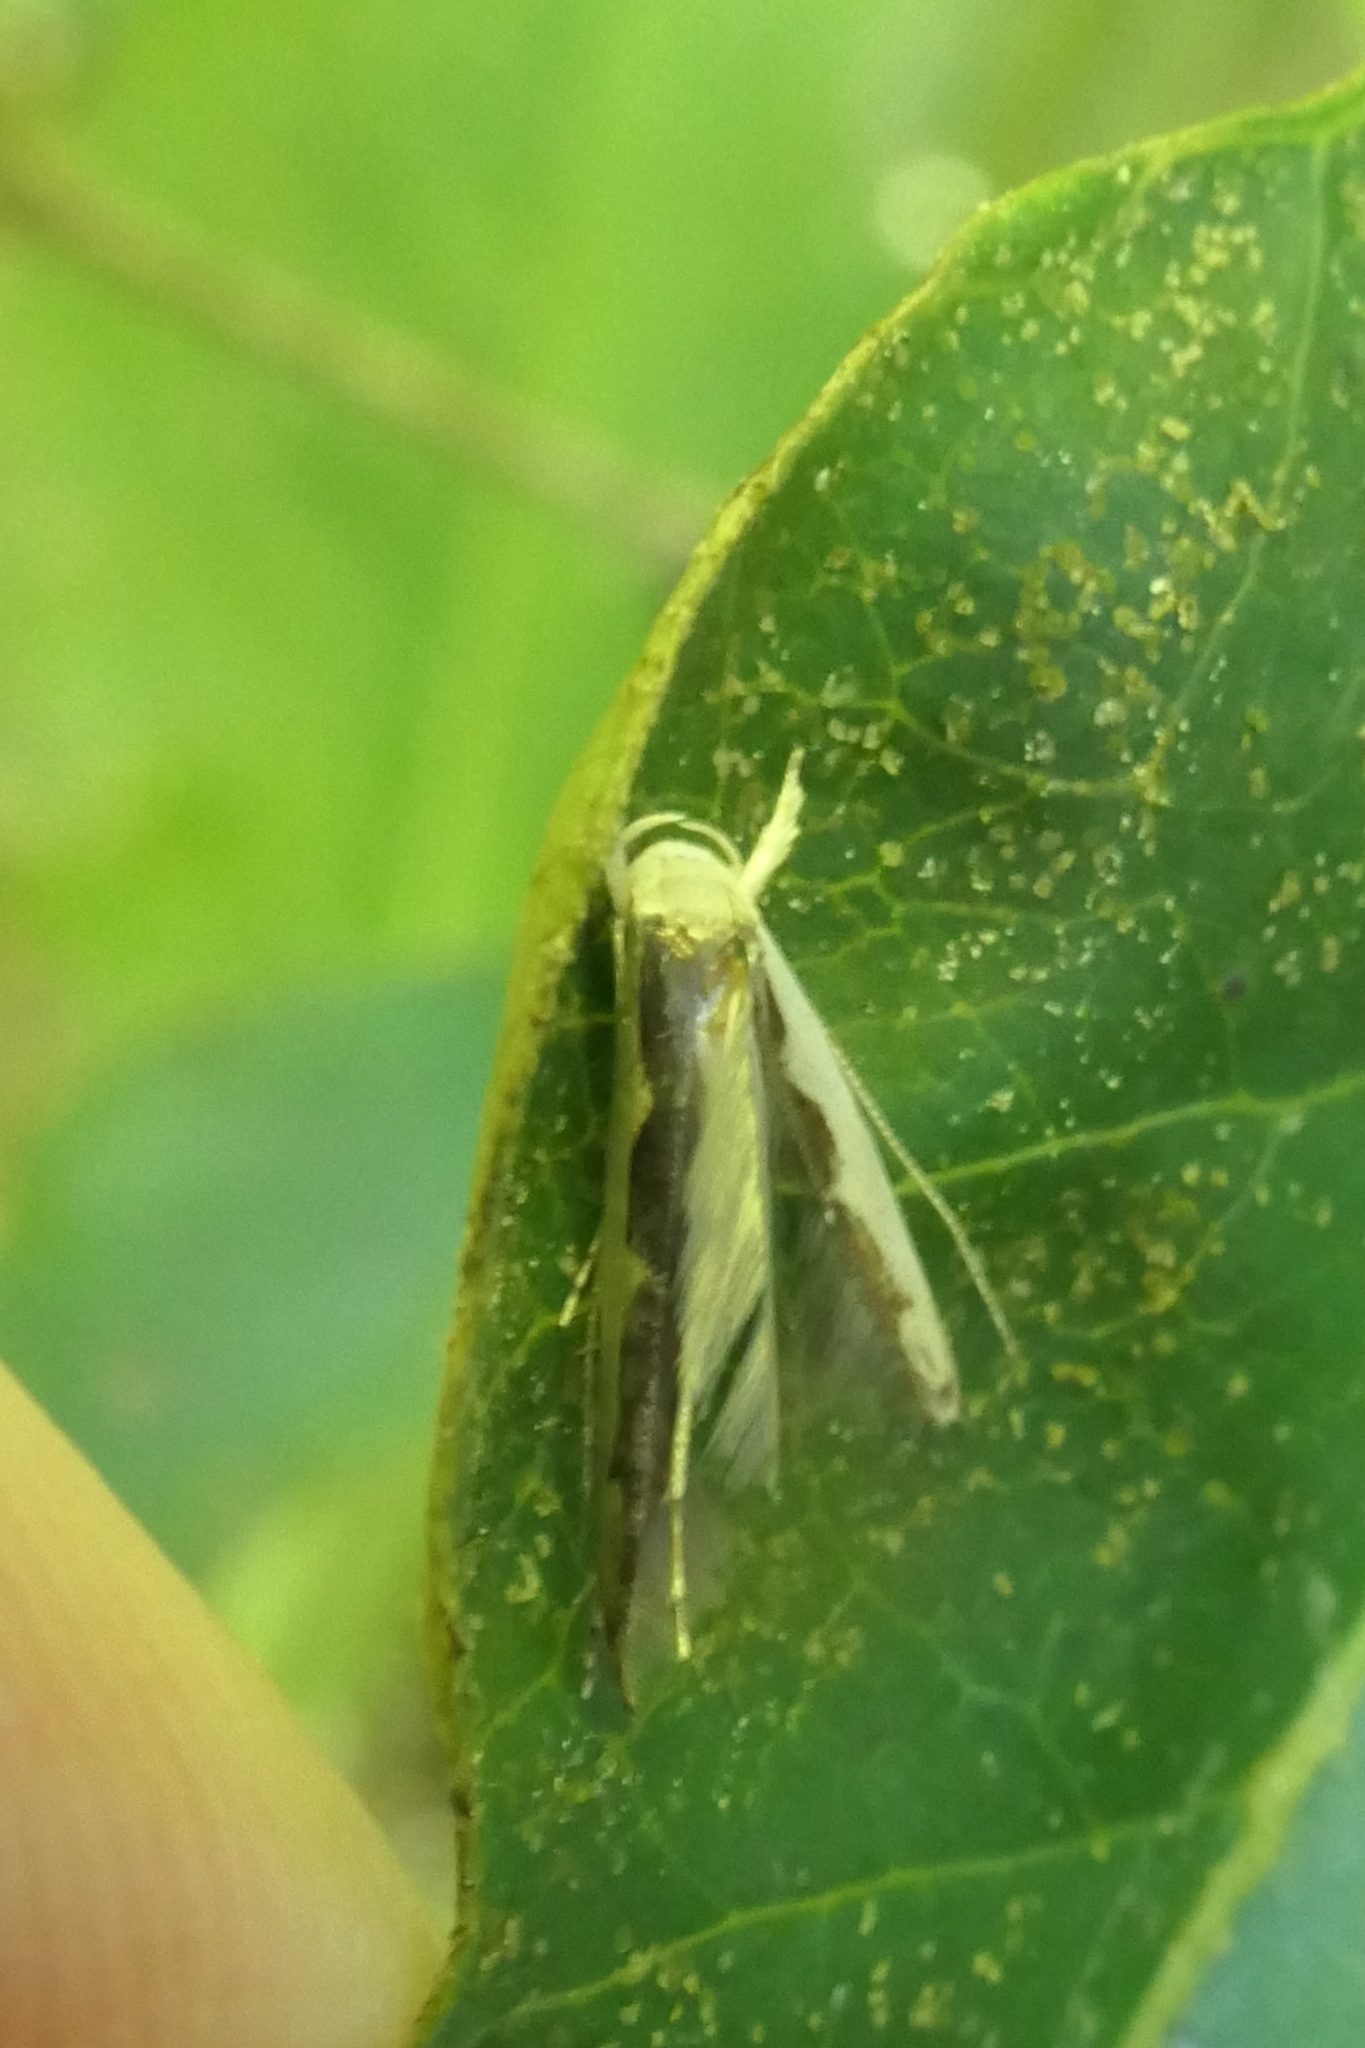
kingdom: Animalia
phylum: Arthropoda
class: Insecta
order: Lepidoptera
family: Roeslerstammiidae
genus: Vanicela
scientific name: Vanicela disjunctella
